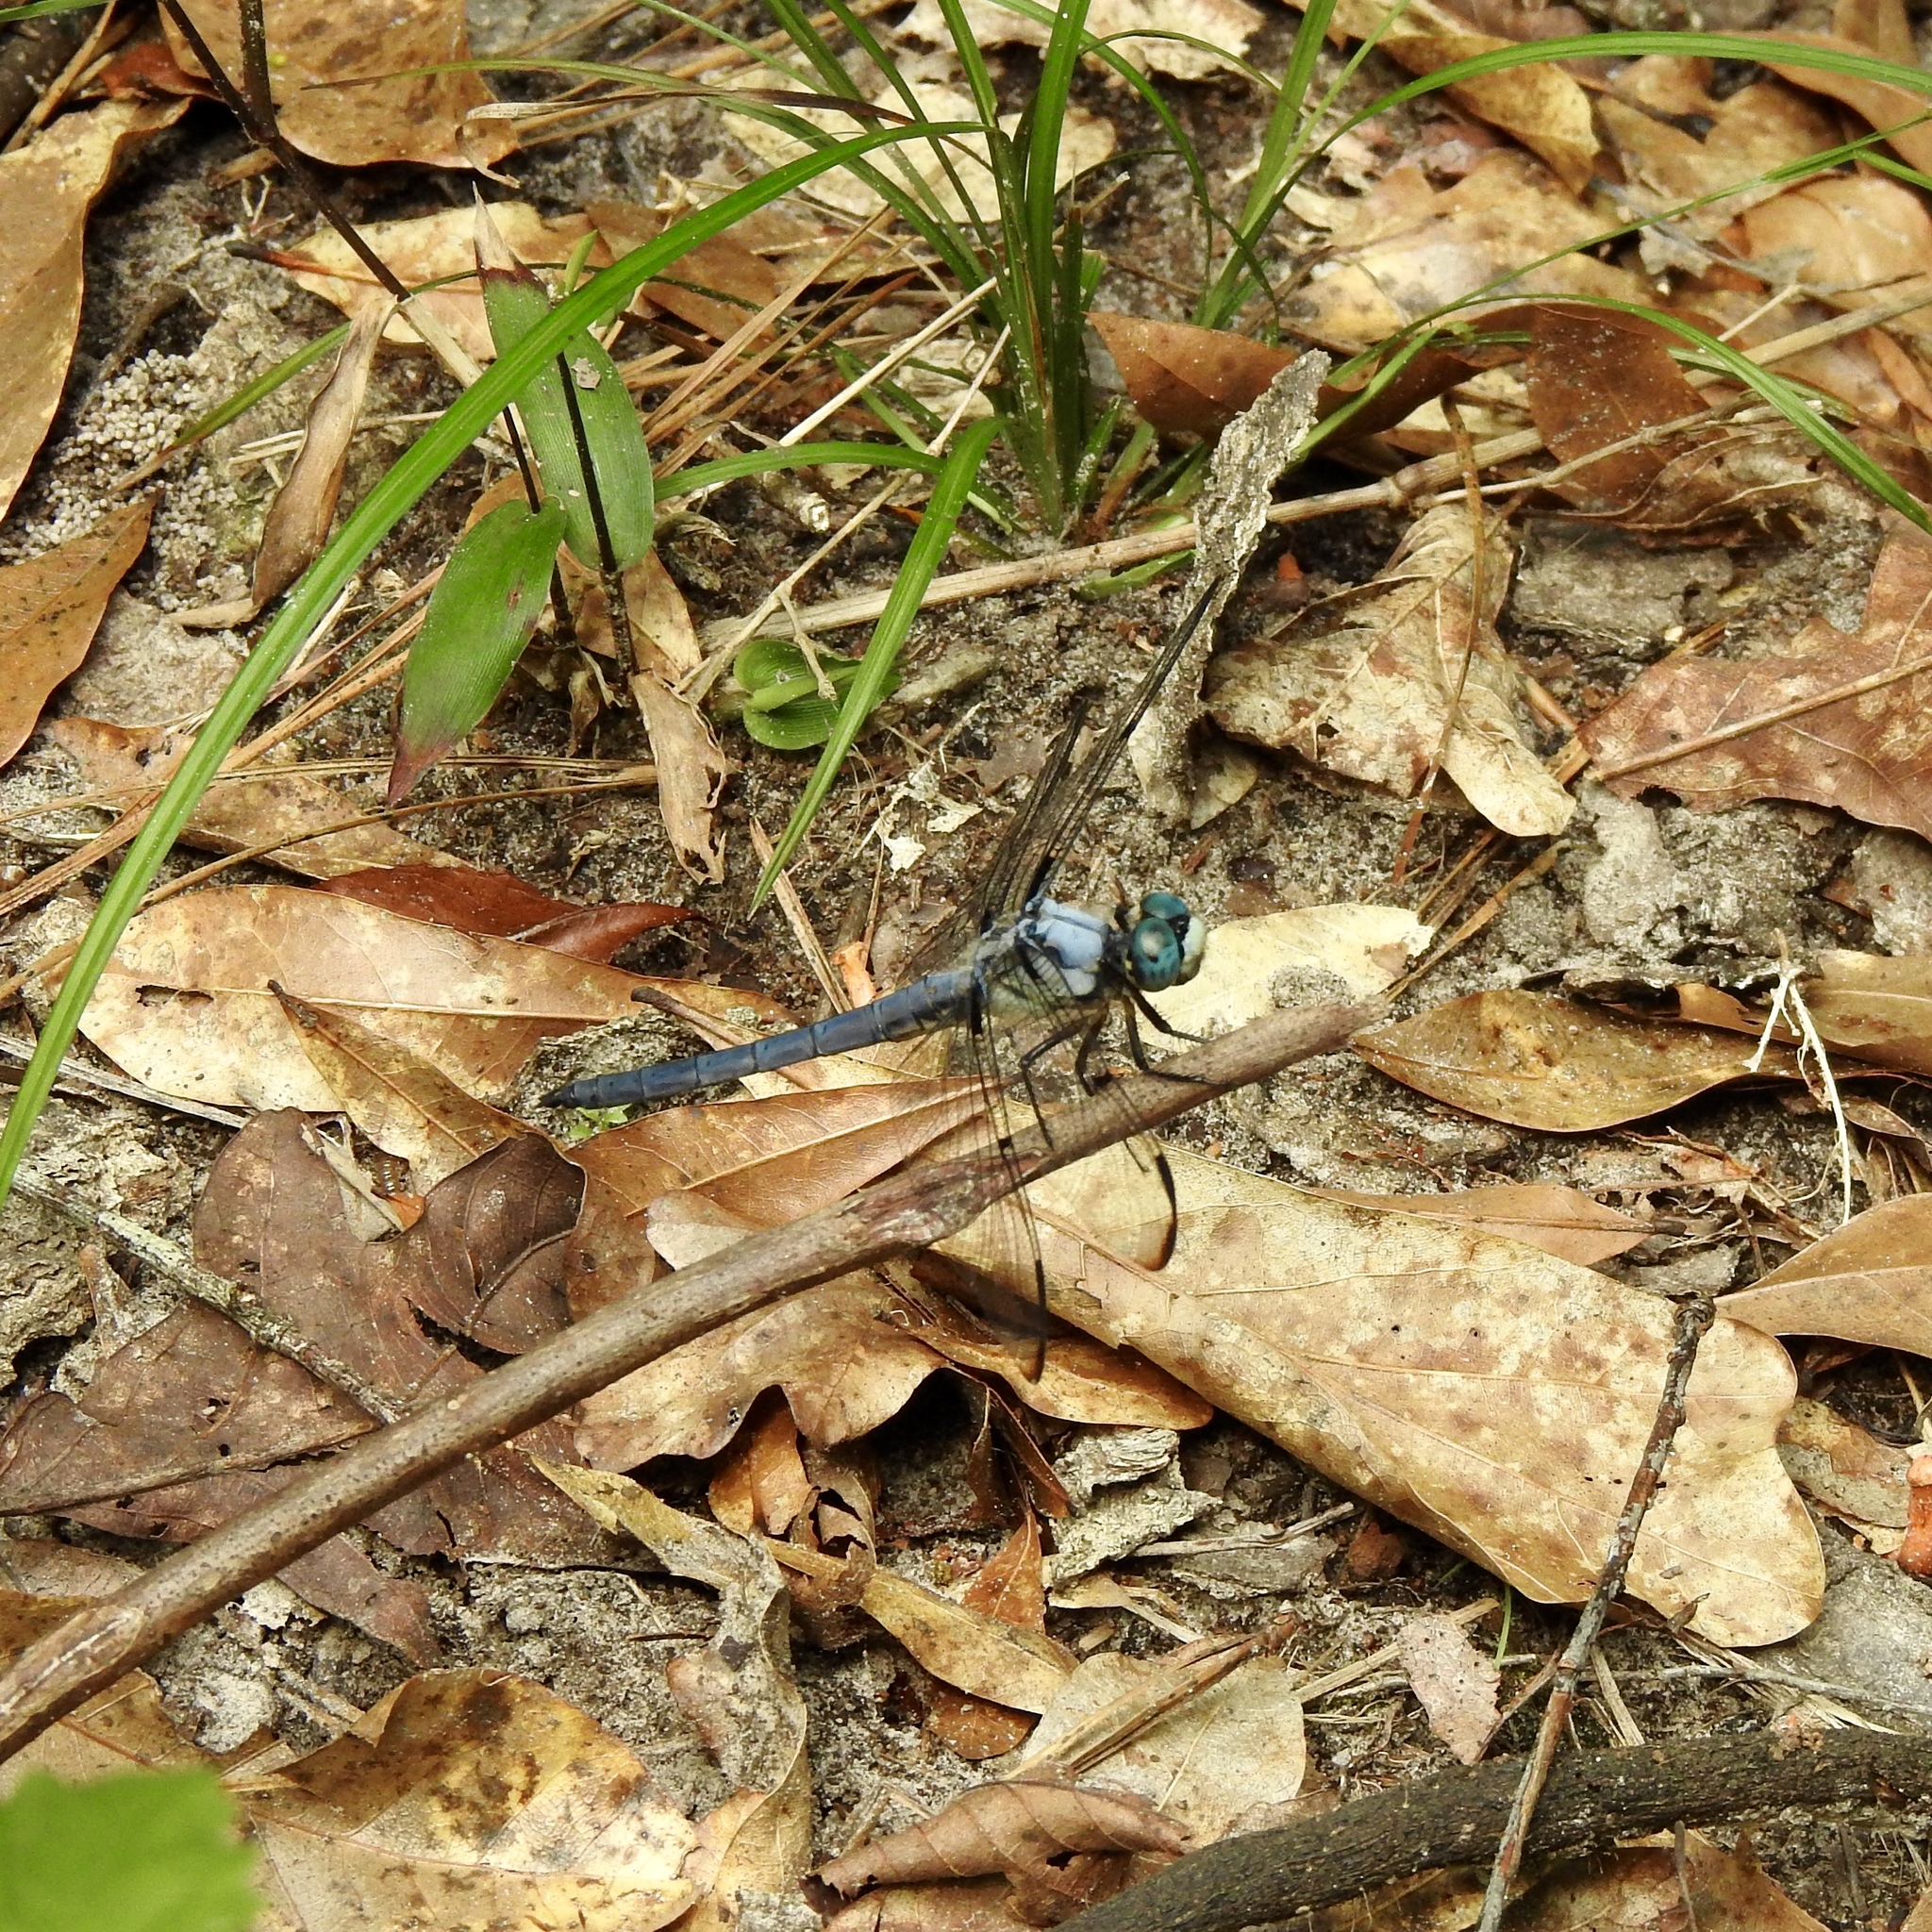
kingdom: Animalia
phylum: Arthropoda
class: Insecta
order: Odonata
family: Libellulidae
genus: Libellula
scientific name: Libellula vibrans
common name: Great blue skimmer
